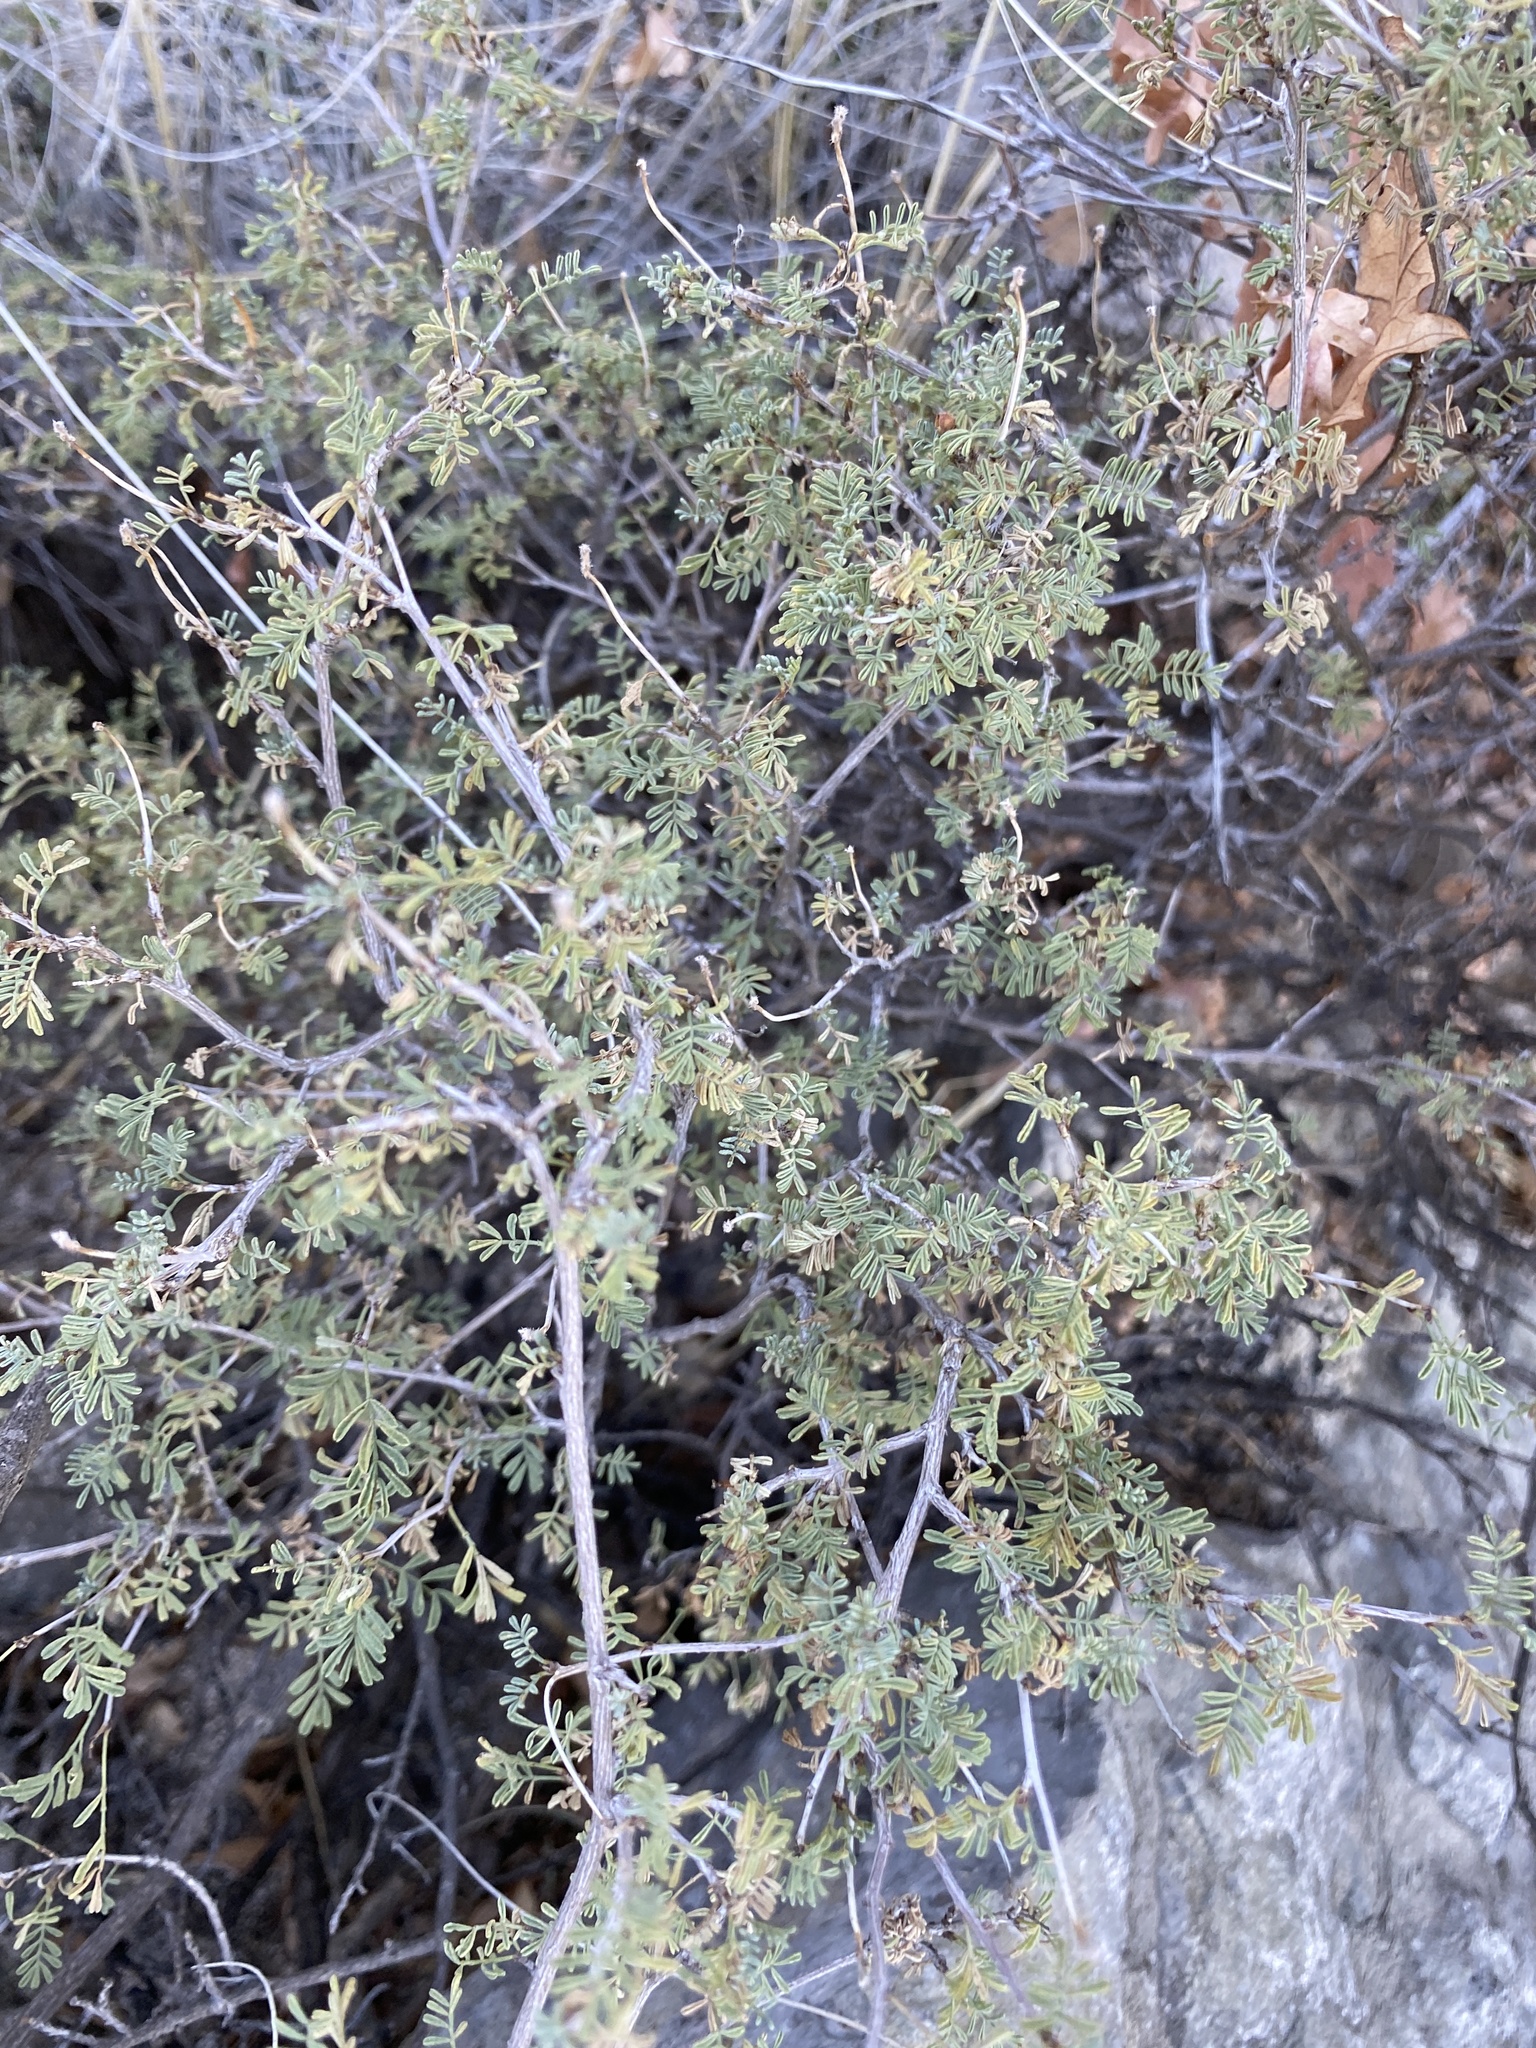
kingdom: Plantae
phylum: Tracheophyta
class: Magnoliopsida
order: Fabales
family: Fabaceae
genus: Dalea
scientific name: Dalea formosa
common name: Feather-plume dalea
